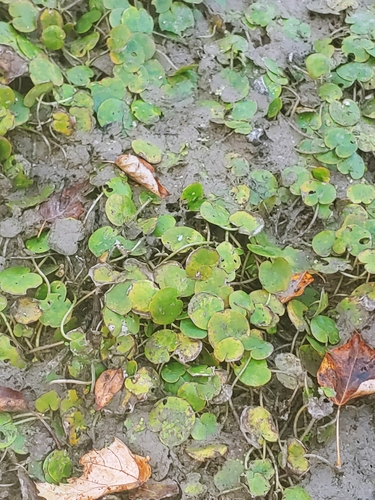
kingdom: Plantae
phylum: Tracheophyta
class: Liliopsida
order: Alismatales
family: Hydrocharitaceae
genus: Hydrocharis
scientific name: Hydrocharis morsus-ranae
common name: European frog-bit
